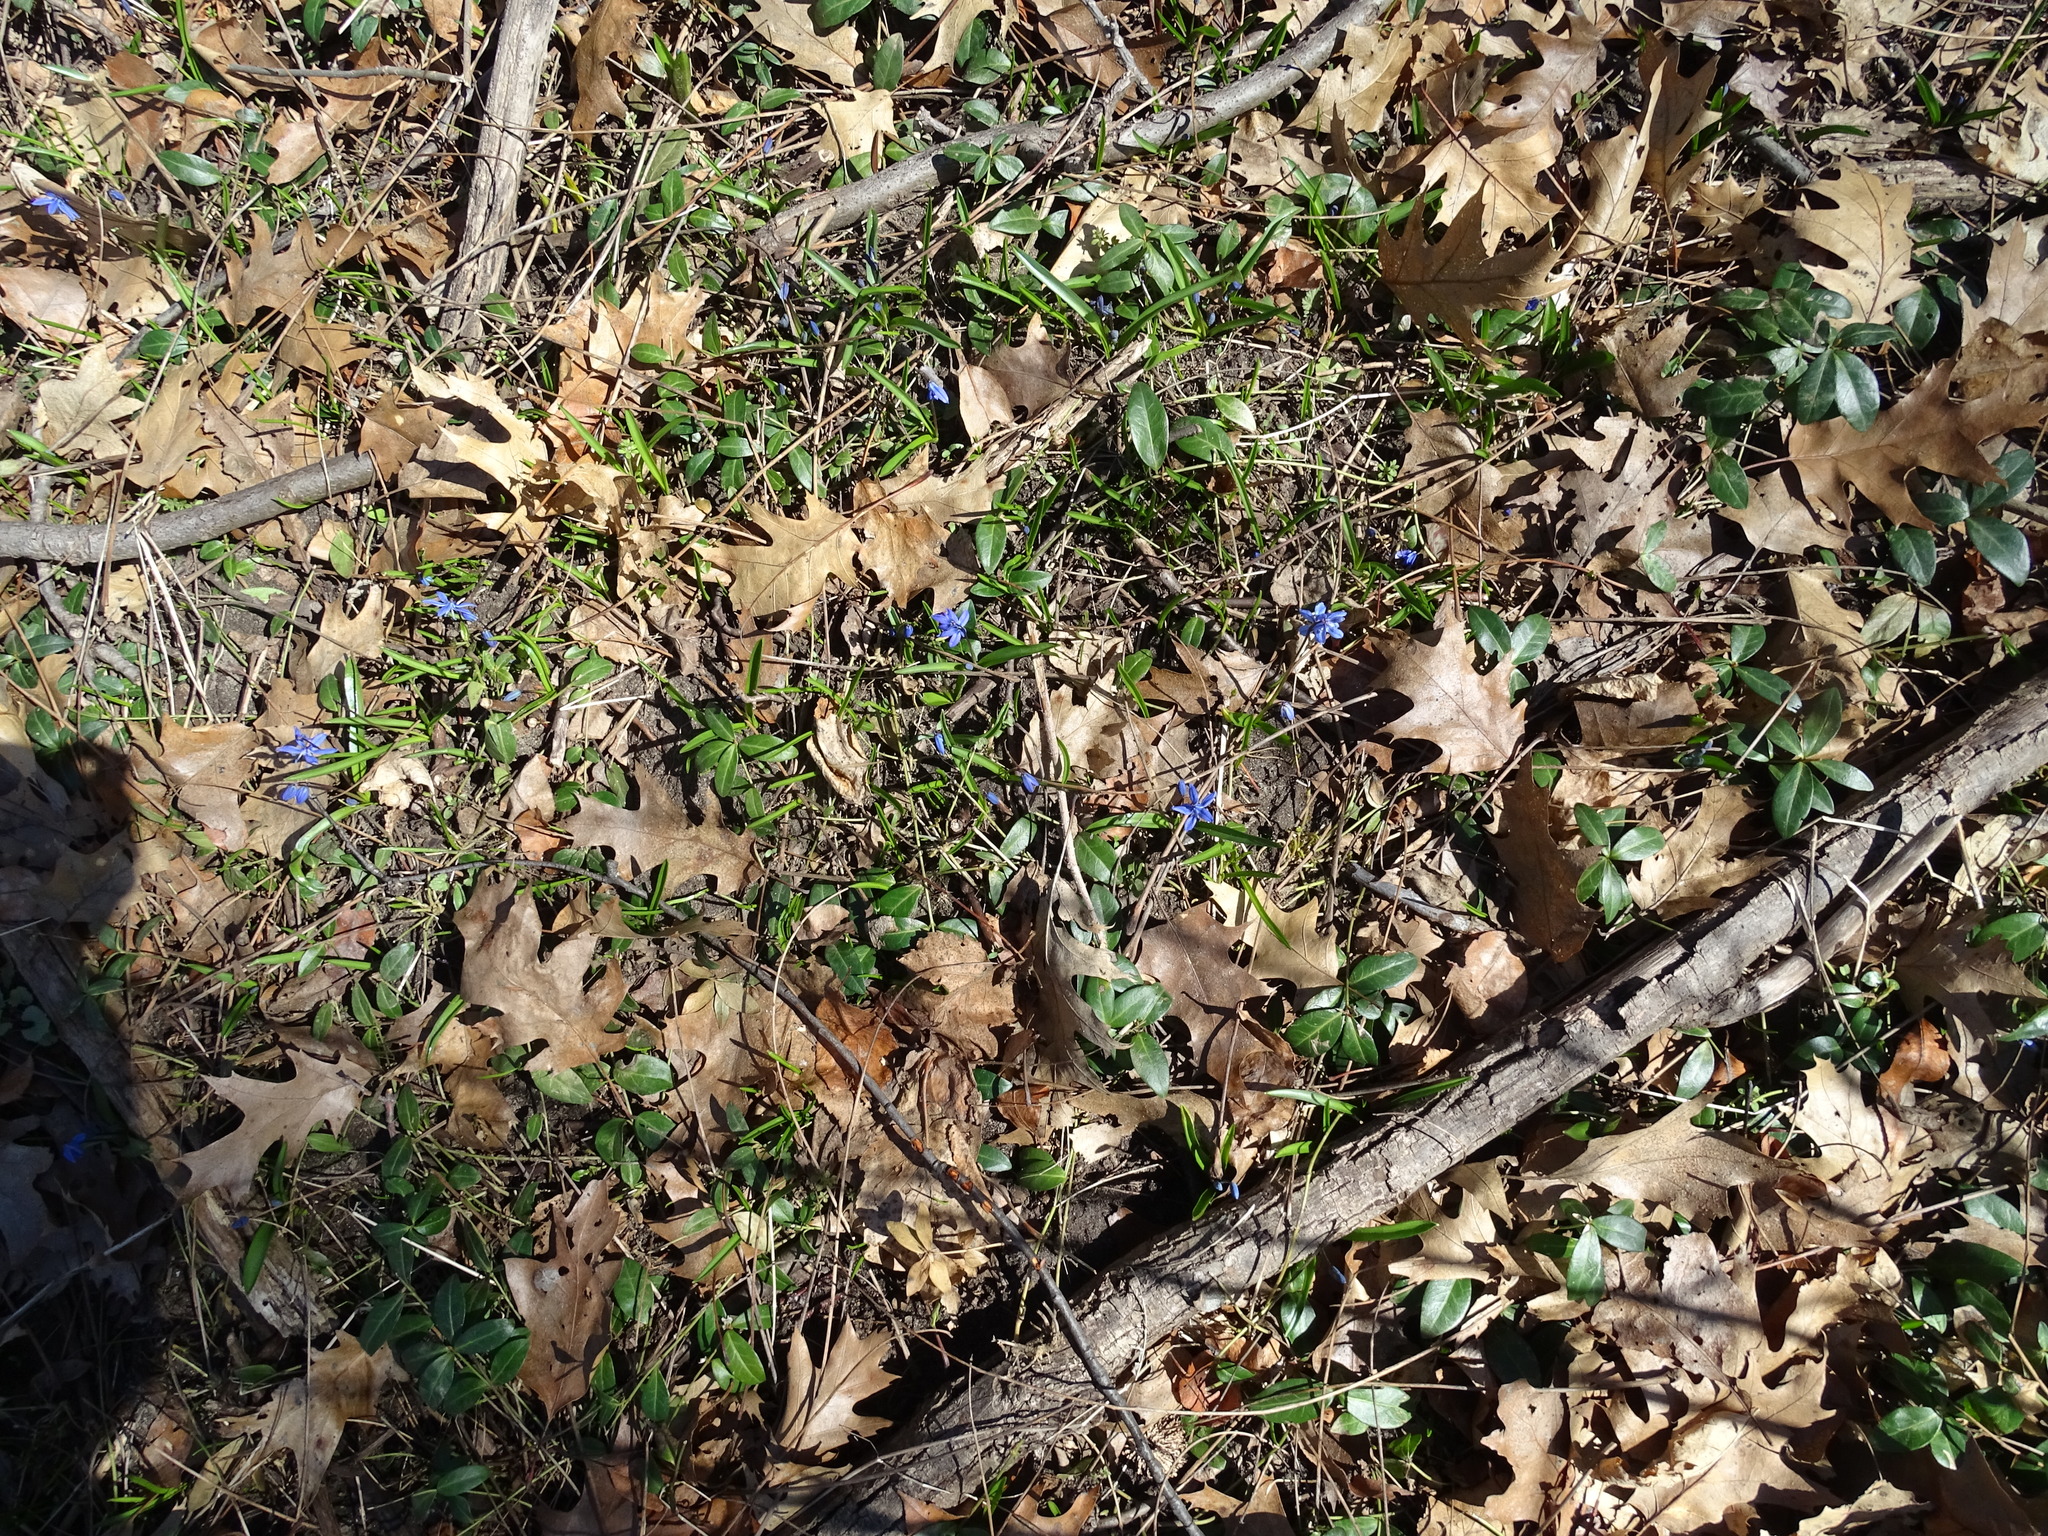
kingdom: Plantae
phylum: Tracheophyta
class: Liliopsida
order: Asparagales
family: Asparagaceae
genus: Scilla
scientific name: Scilla siberica
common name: Siberian squill
